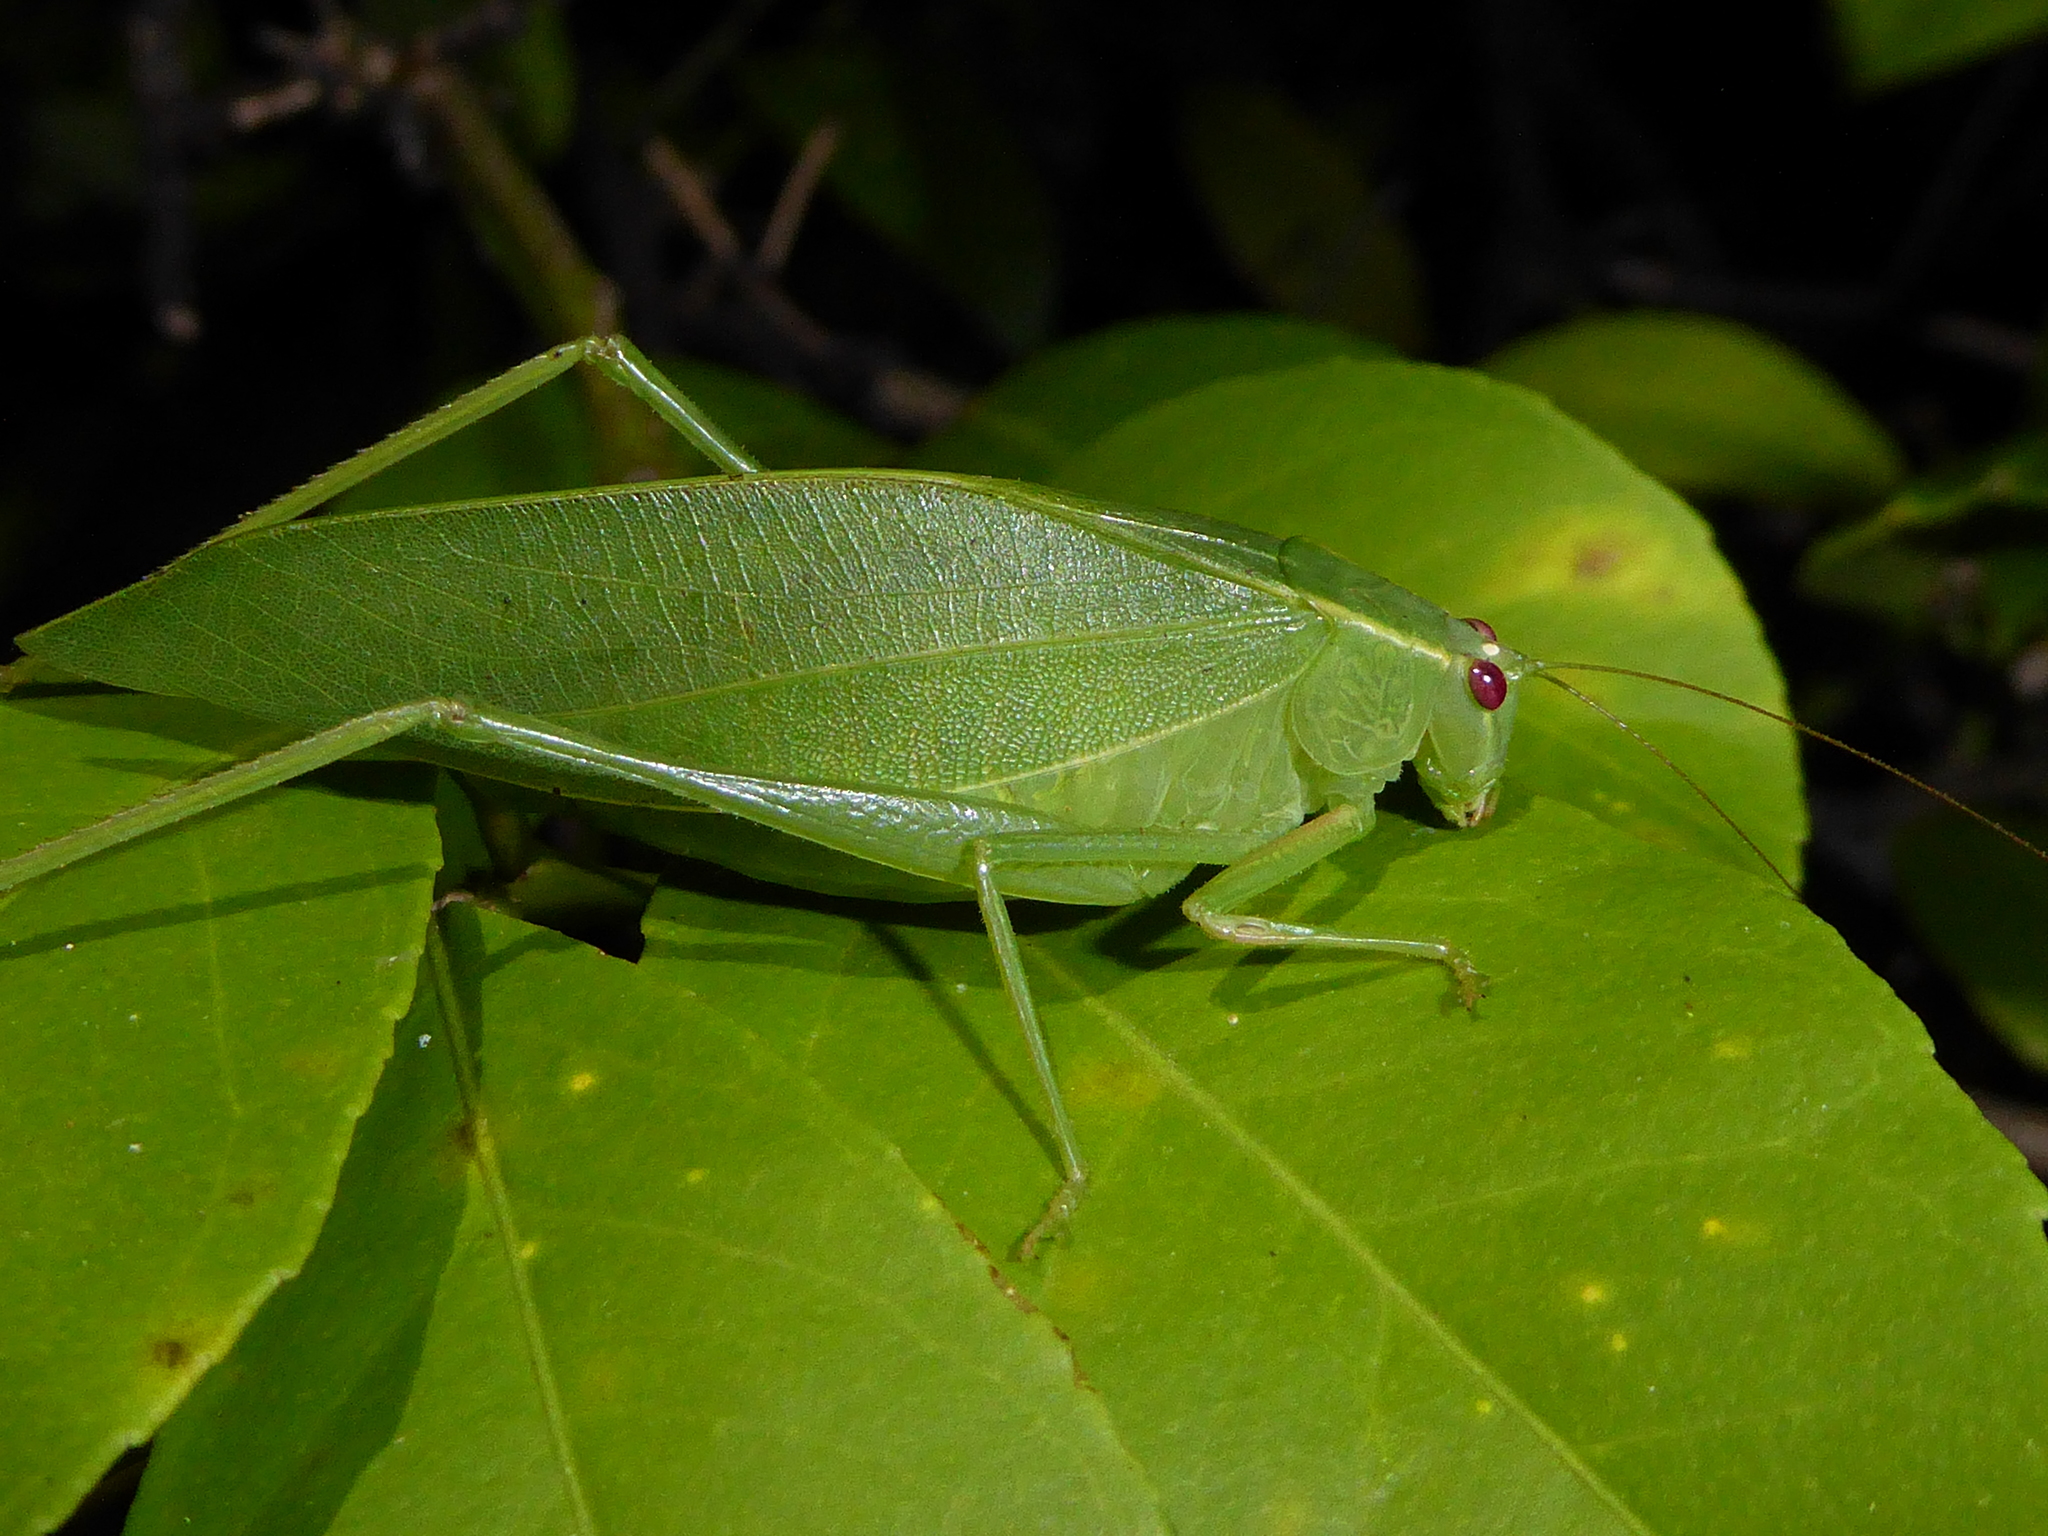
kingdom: Animalia
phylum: Arthropoda
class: Insecta
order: Orthoptera
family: Tettigoniidae
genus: Caedicia
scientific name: Caedicia simplex
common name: Common garden katydid
